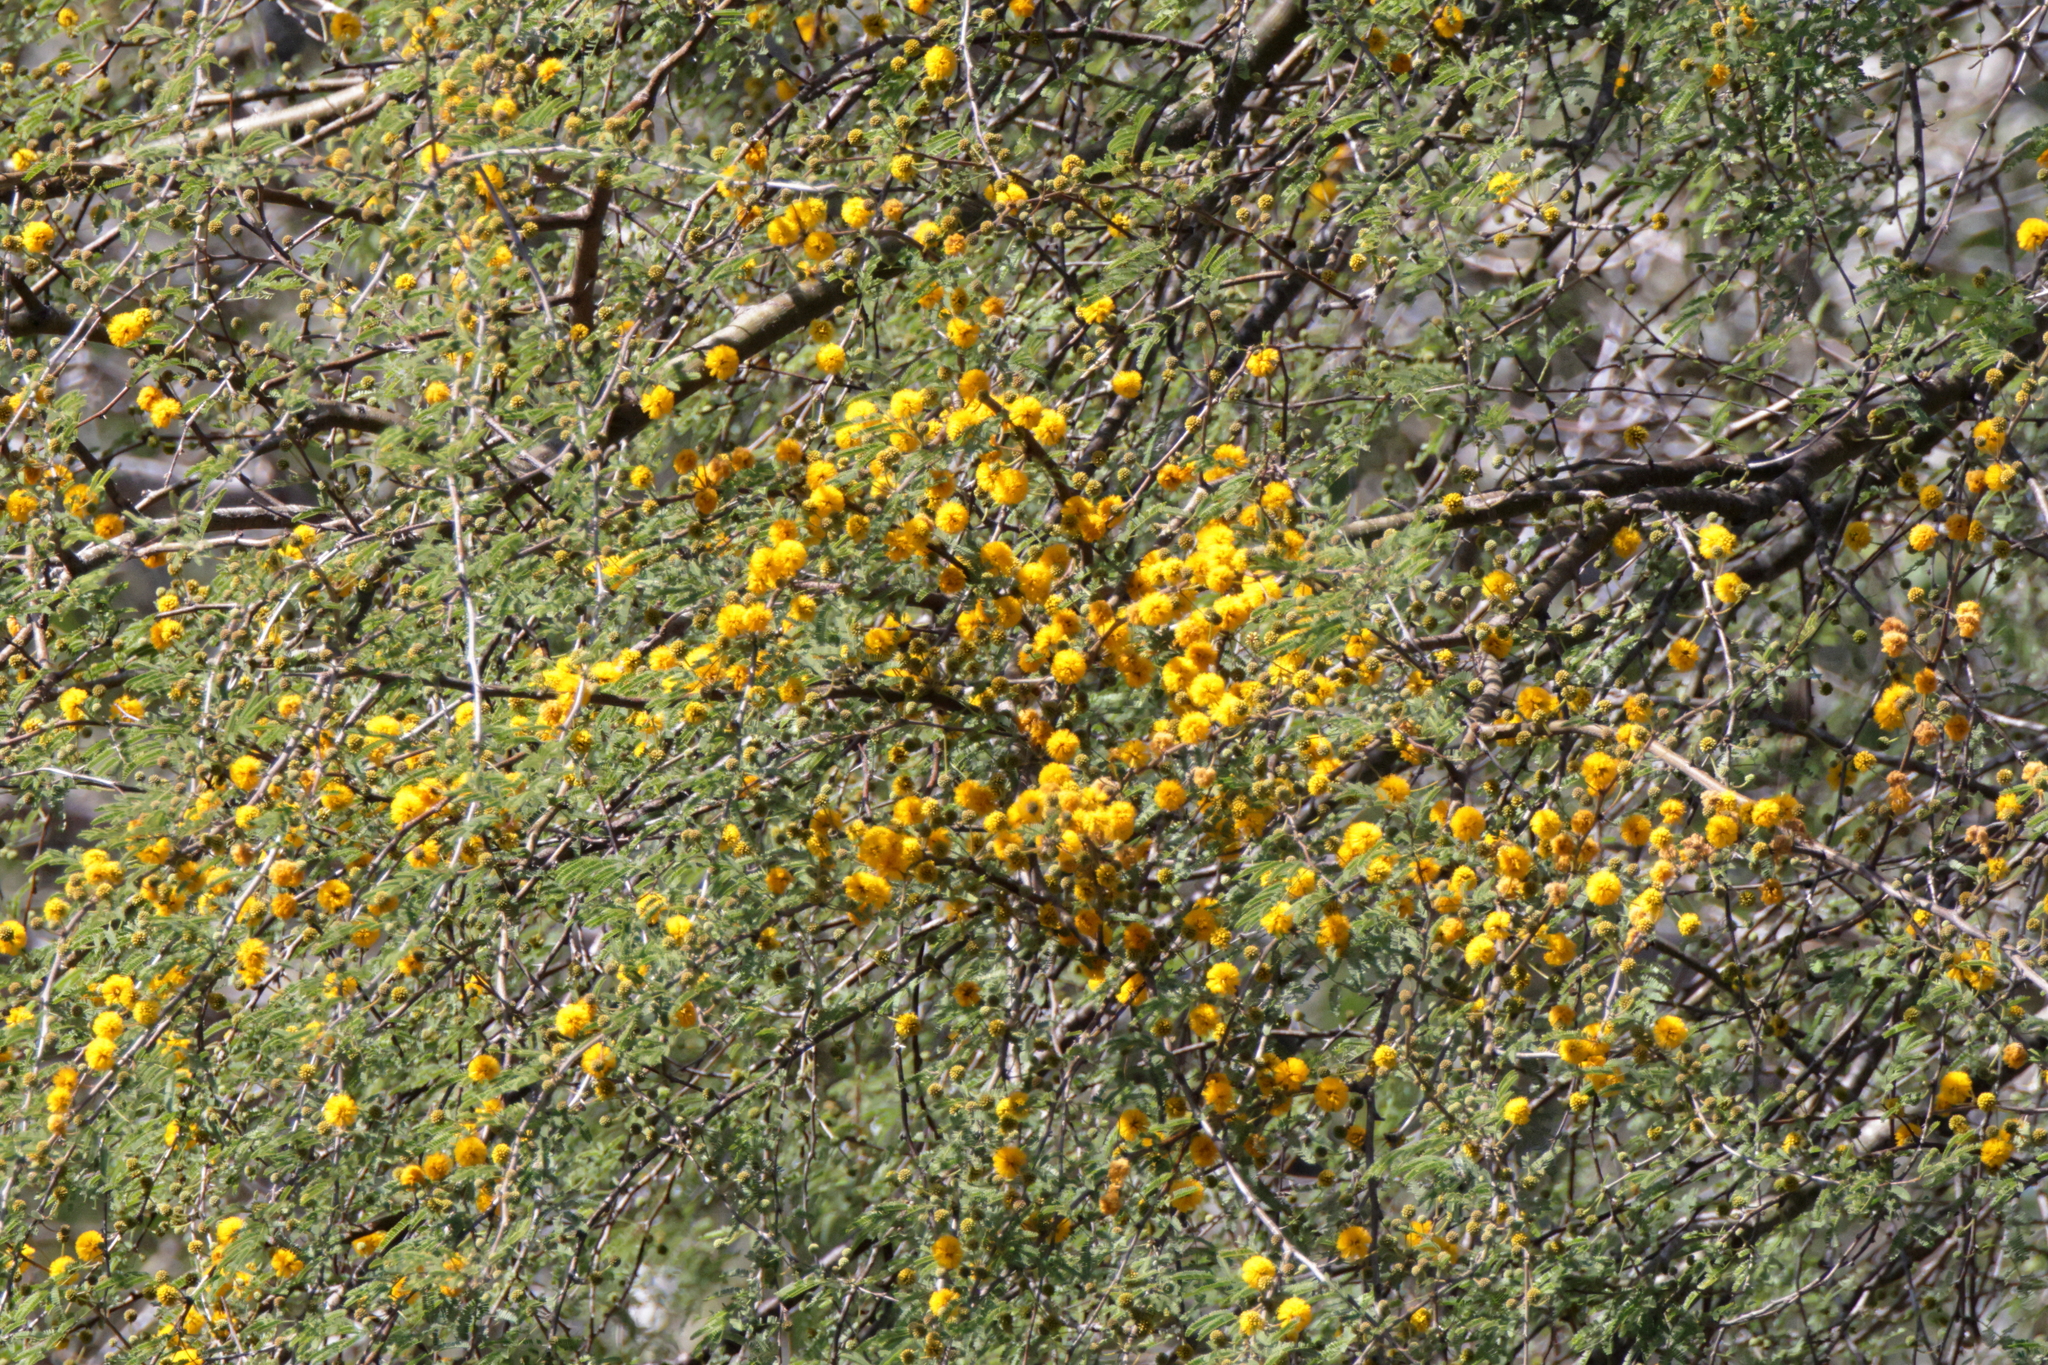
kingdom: Plantae
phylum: Tracheophyta
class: Magnoliopsida
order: Fabales
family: Fabaceae
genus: Vachellia
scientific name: Vachellia farnesiana
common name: Sweet acacia
